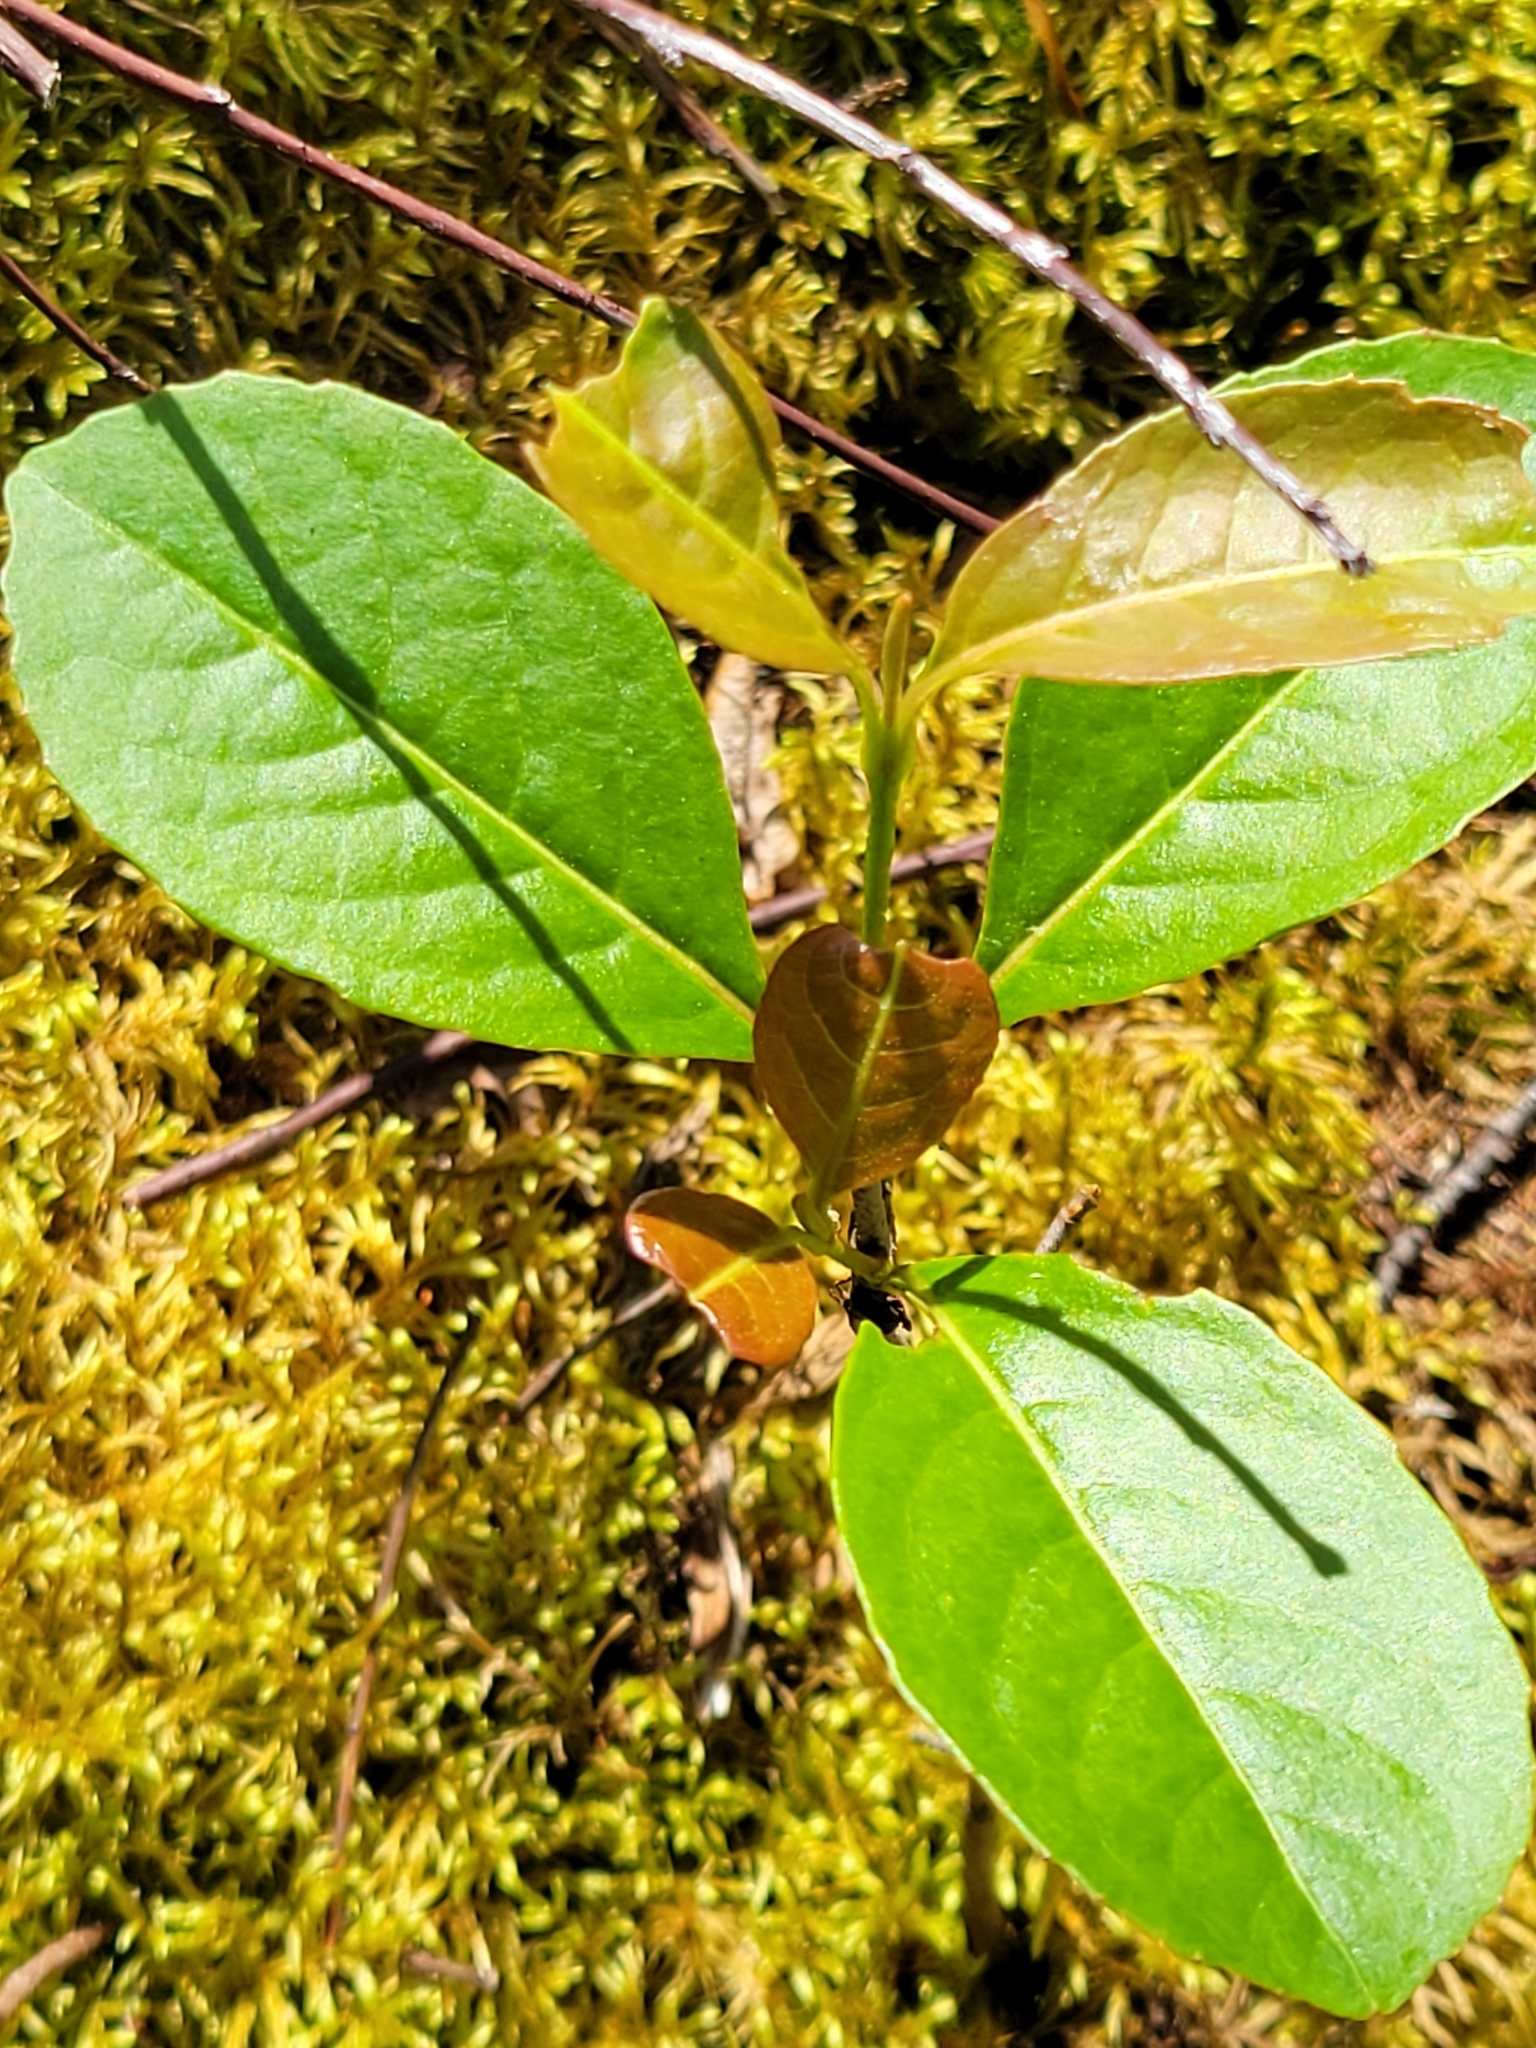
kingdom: Plantae
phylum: Tracheophyta
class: Magnoliopsida
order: Dipsacales
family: Viburnaceae
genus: Viburnum
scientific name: Viburnum cassinoides
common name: Swamp haw
